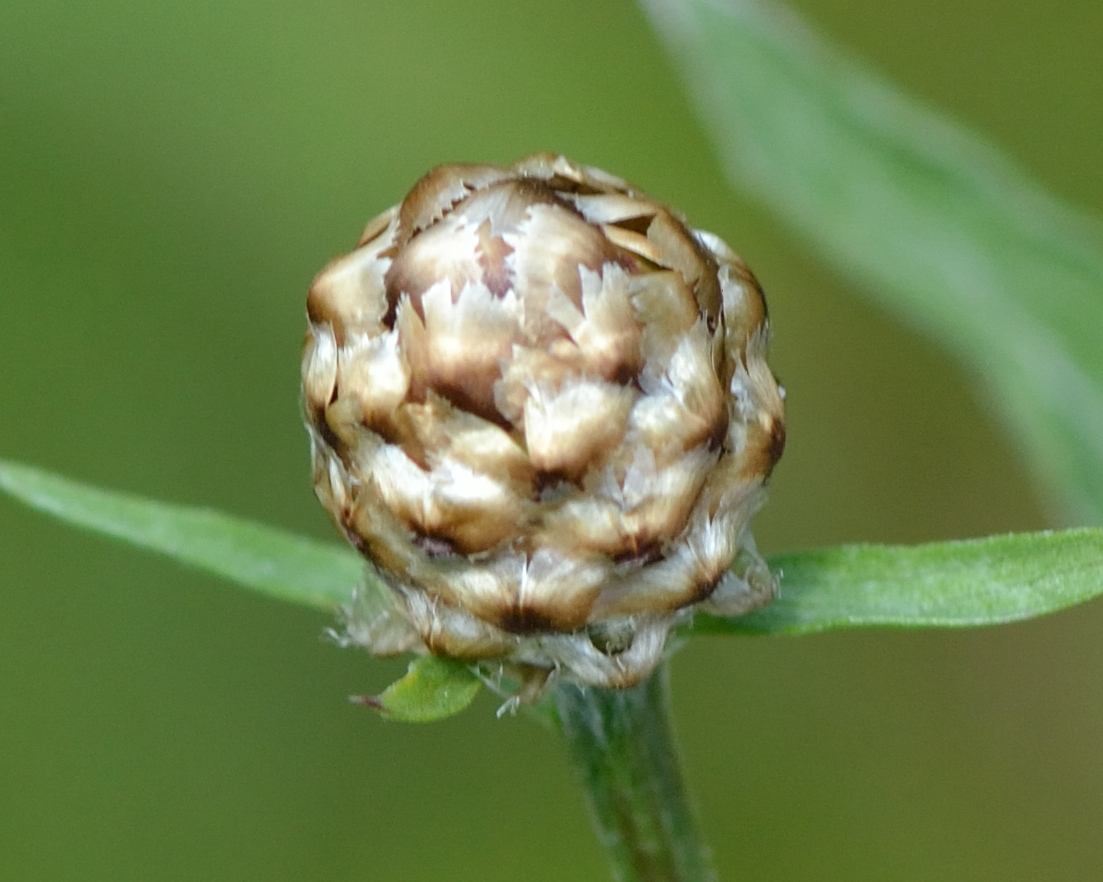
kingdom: Plantae
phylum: Tracheophyta
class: Magnoliopsida
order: Asterales
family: Asteraceae
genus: Centaurea
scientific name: Centaurea jacea
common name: Brown knapweed
